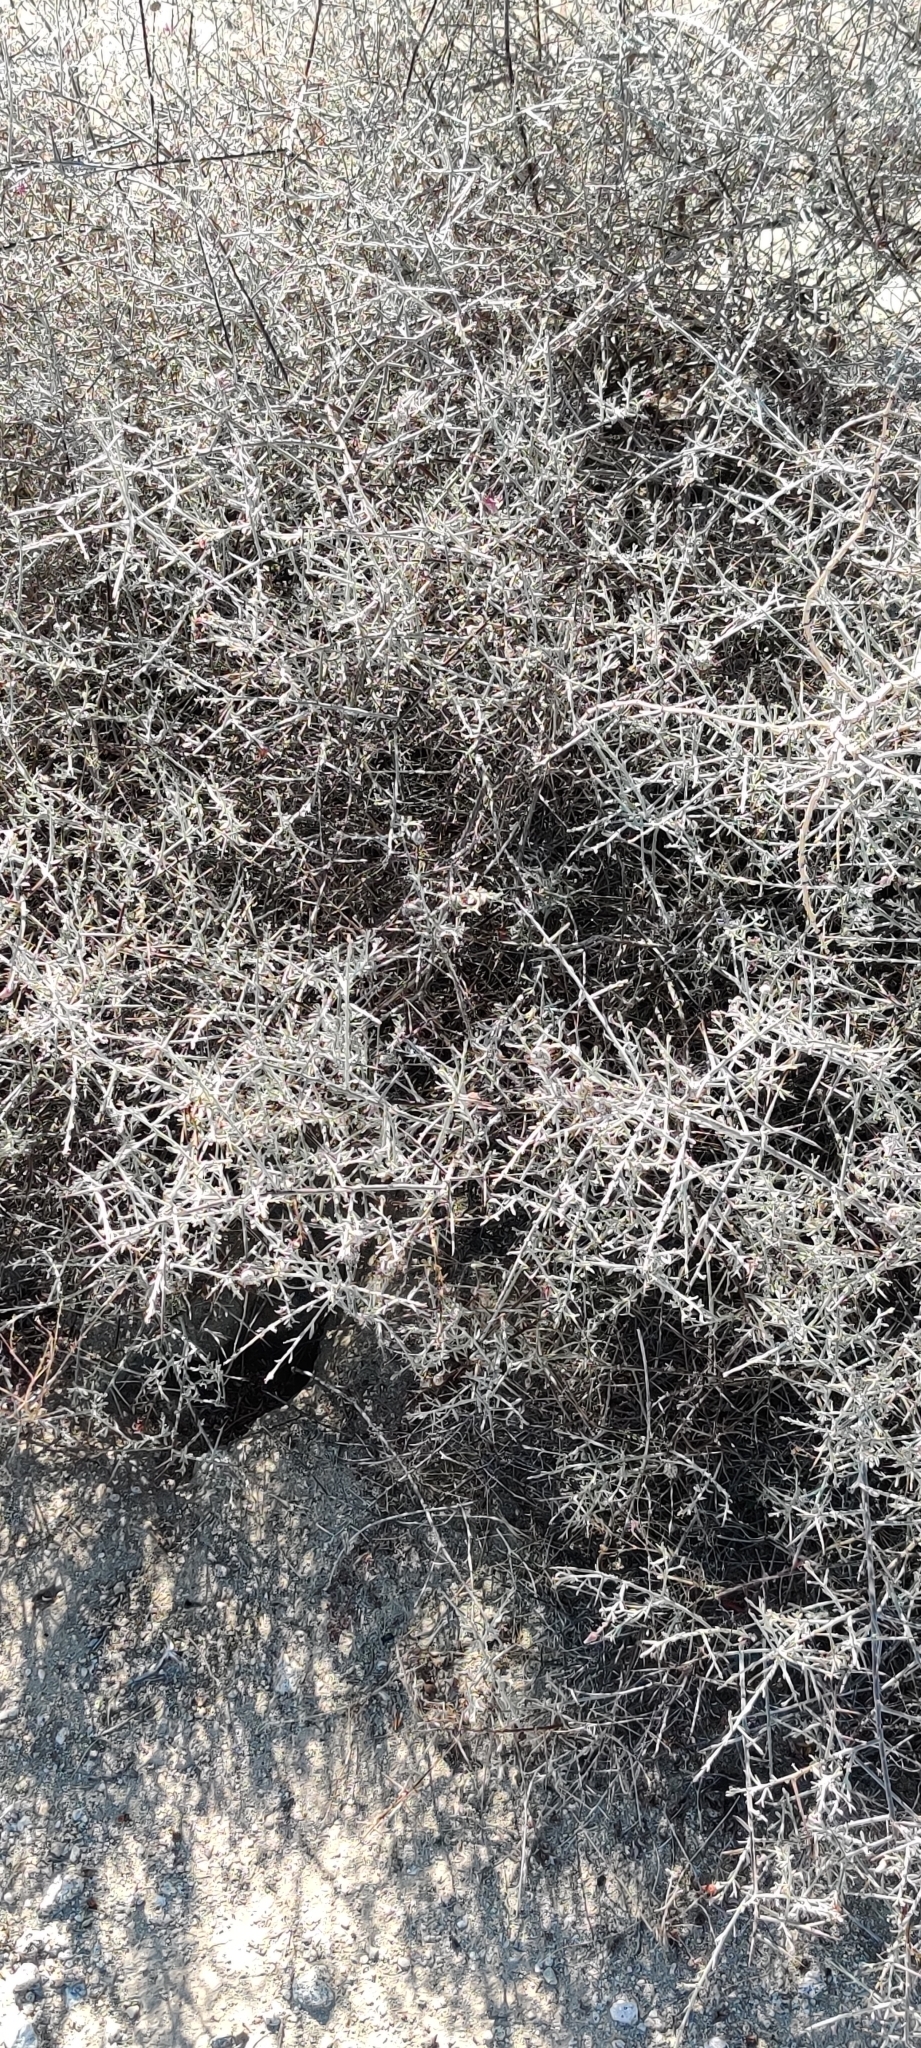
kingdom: Plantae
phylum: Tracheophyta
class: Magnoliopsida
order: Zygophyllales
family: Krameriaceae
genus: Krameria
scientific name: Krameria bicolor
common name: White ratany
